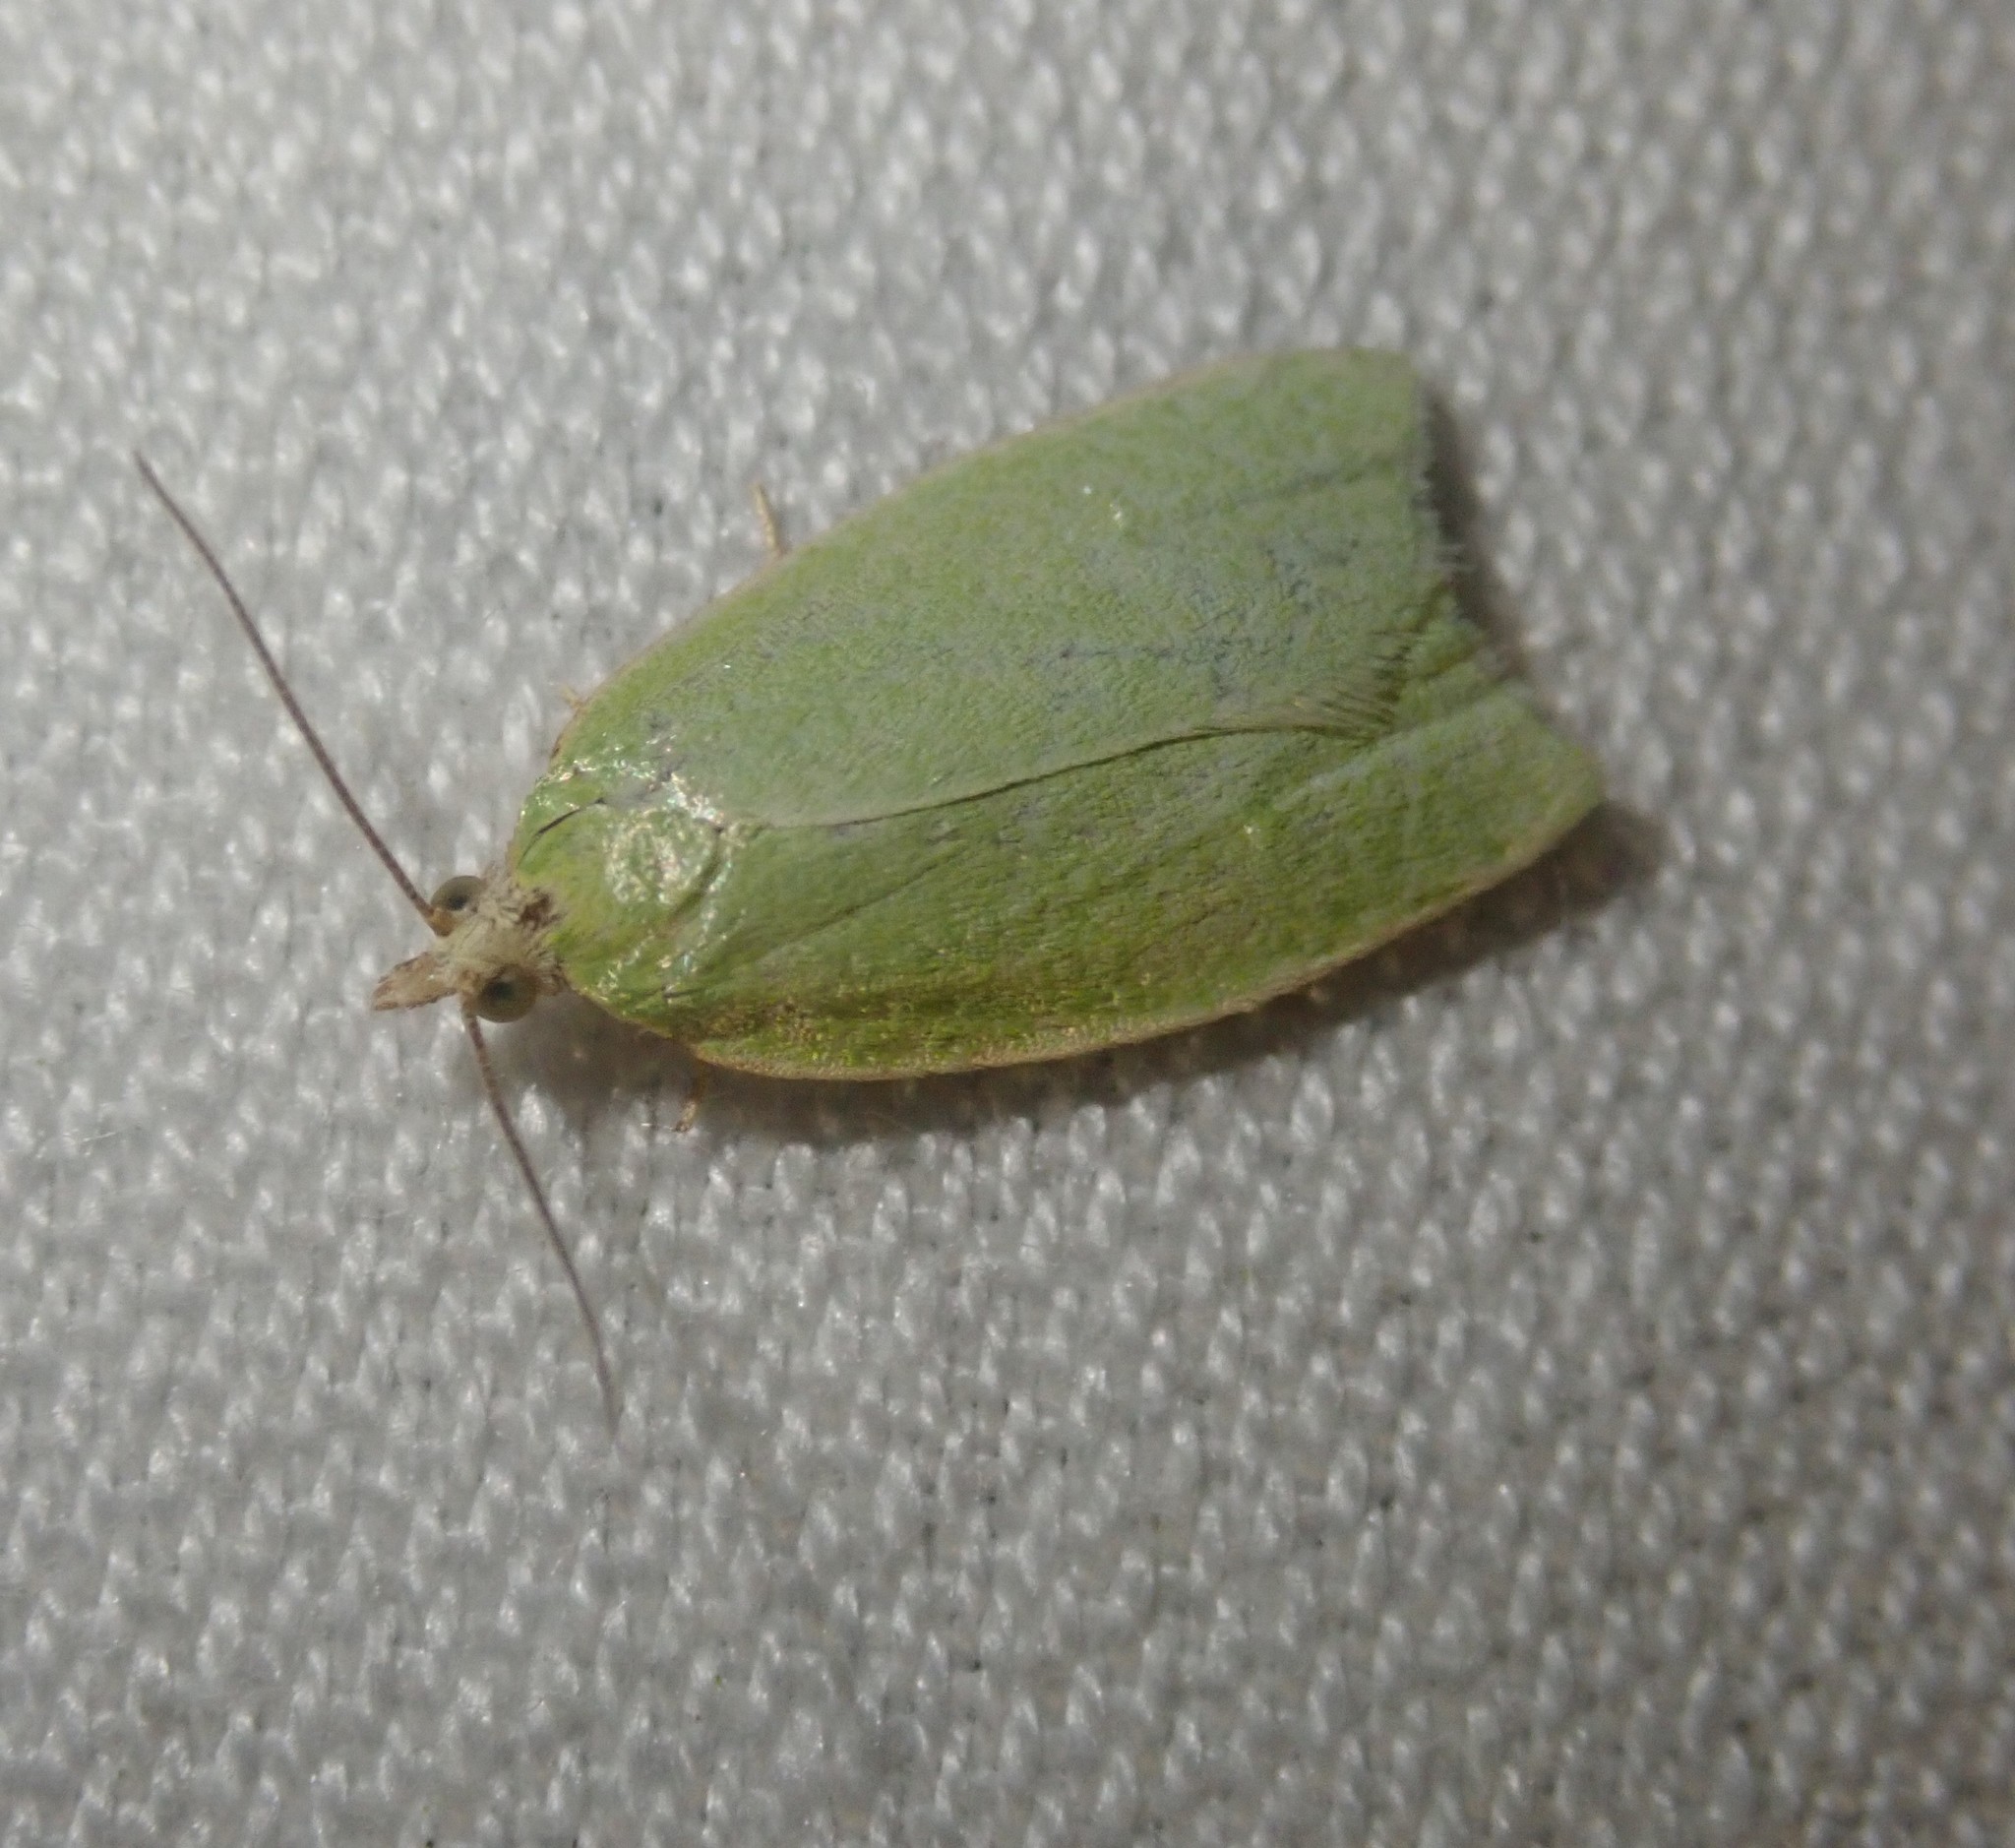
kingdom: Animalia
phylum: Arthropoda
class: Insecta
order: Lepidoptera
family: Tortricidae
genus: Tortrix
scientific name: Tortrix viridana
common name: Green oak tortrix
